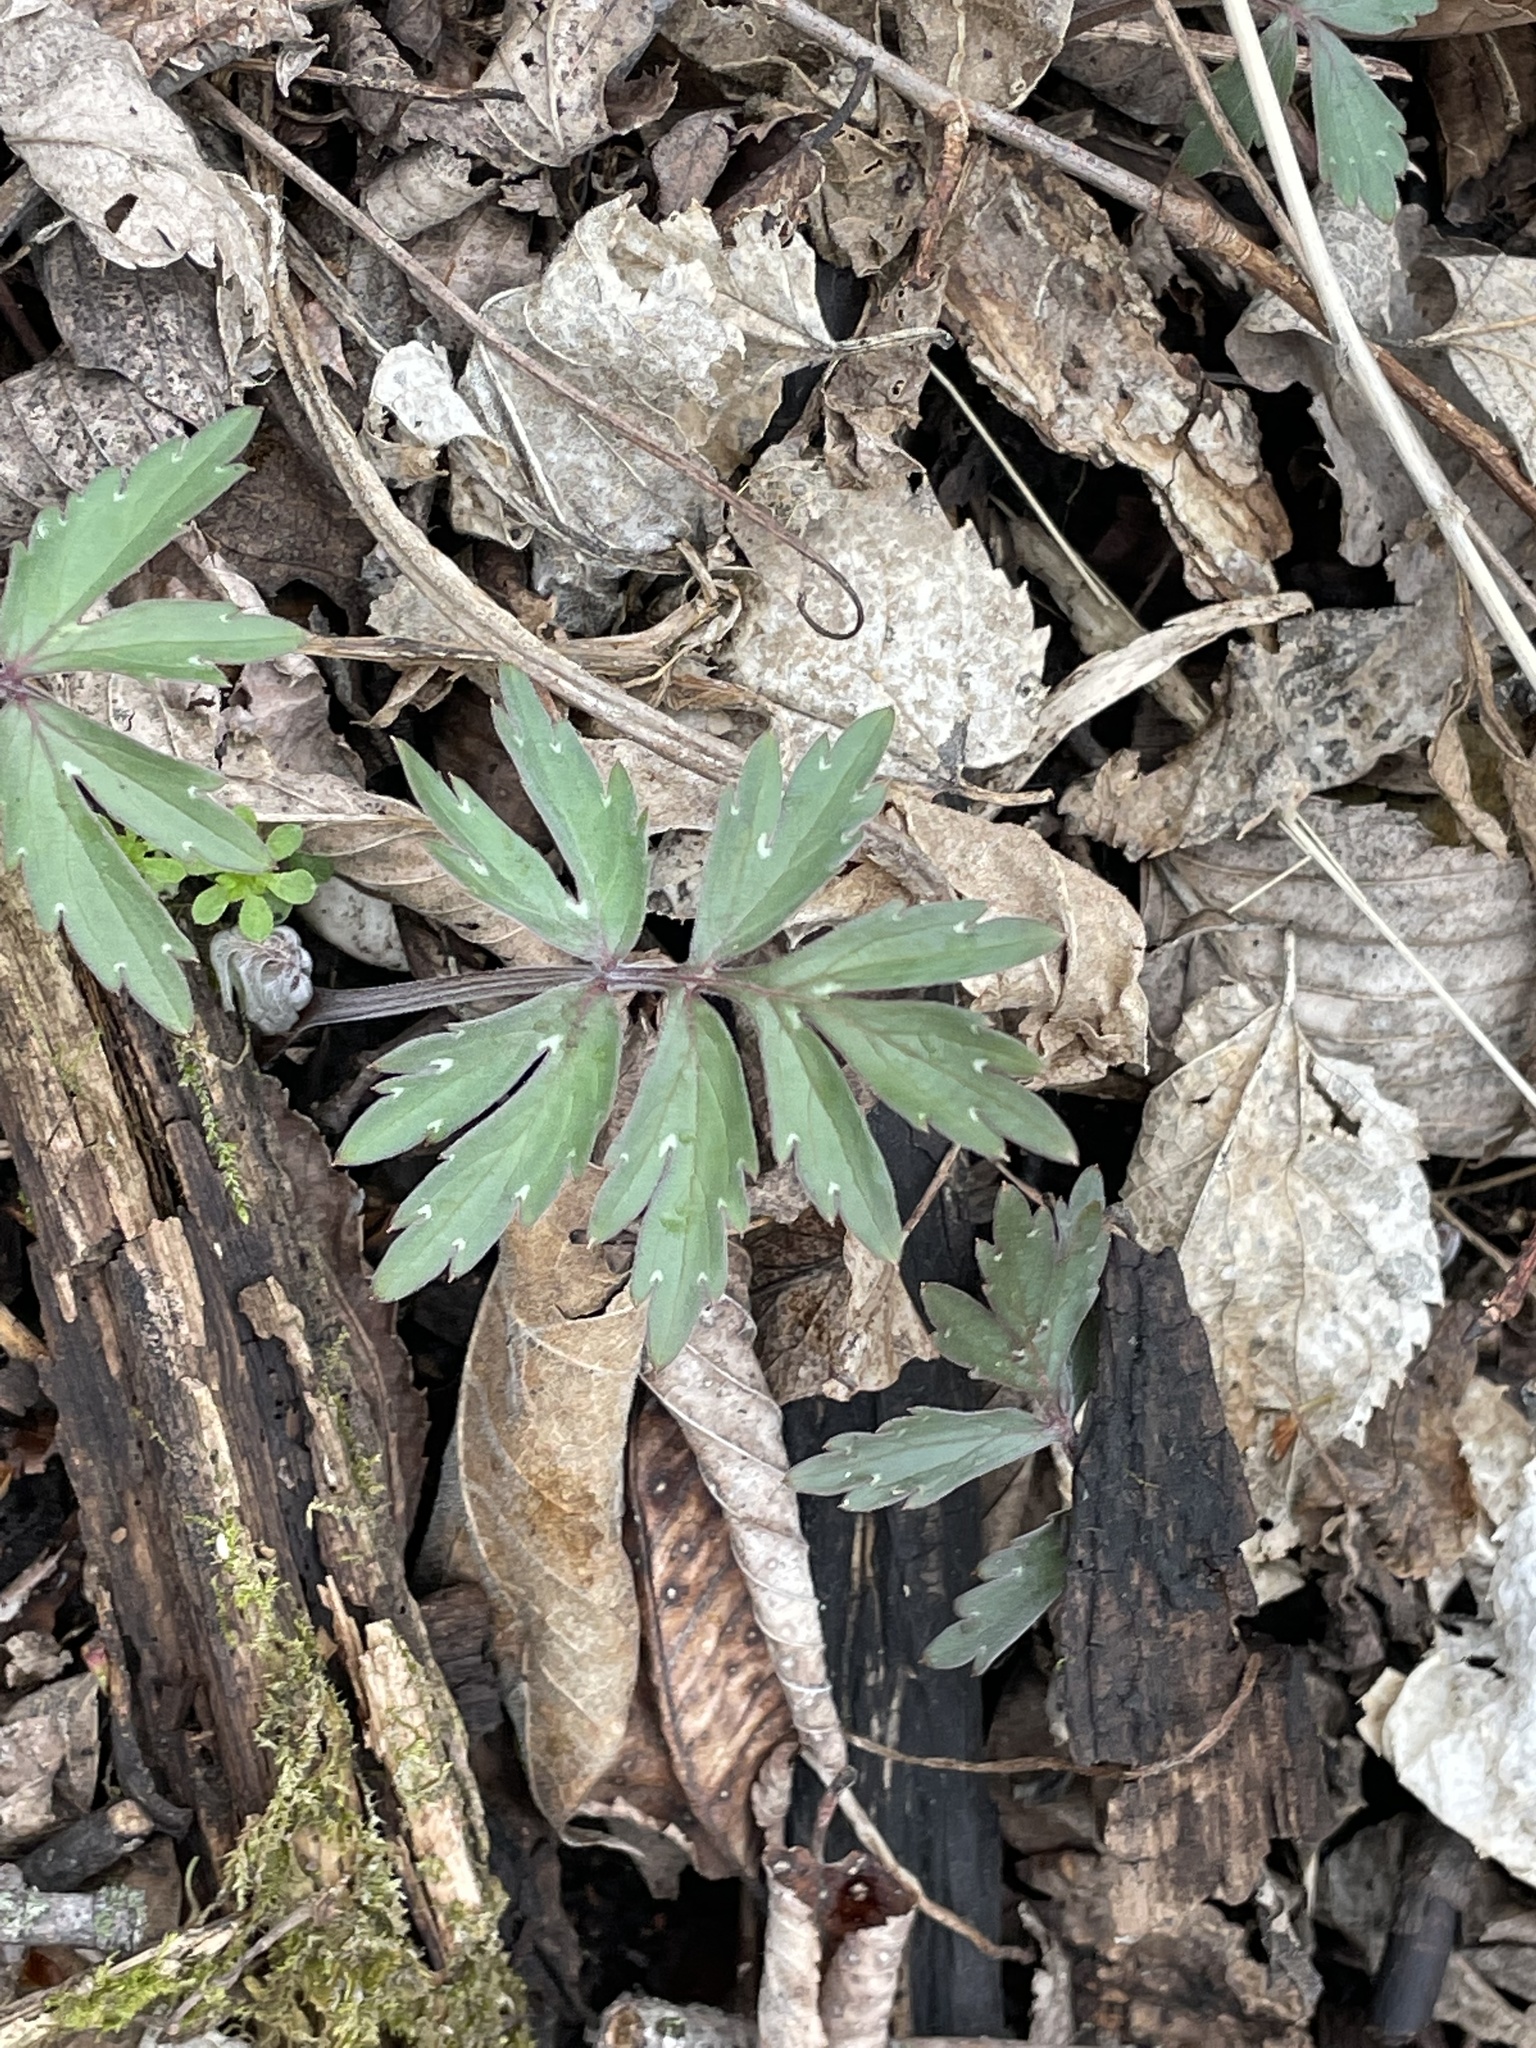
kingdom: Plantae
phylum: Tracheophyta
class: Magnoliopsida
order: Boraginales
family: Hydrophyllaceae
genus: Hydrophyllum
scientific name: Hydrophyllum virginianum
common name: Virginia waterleaf
